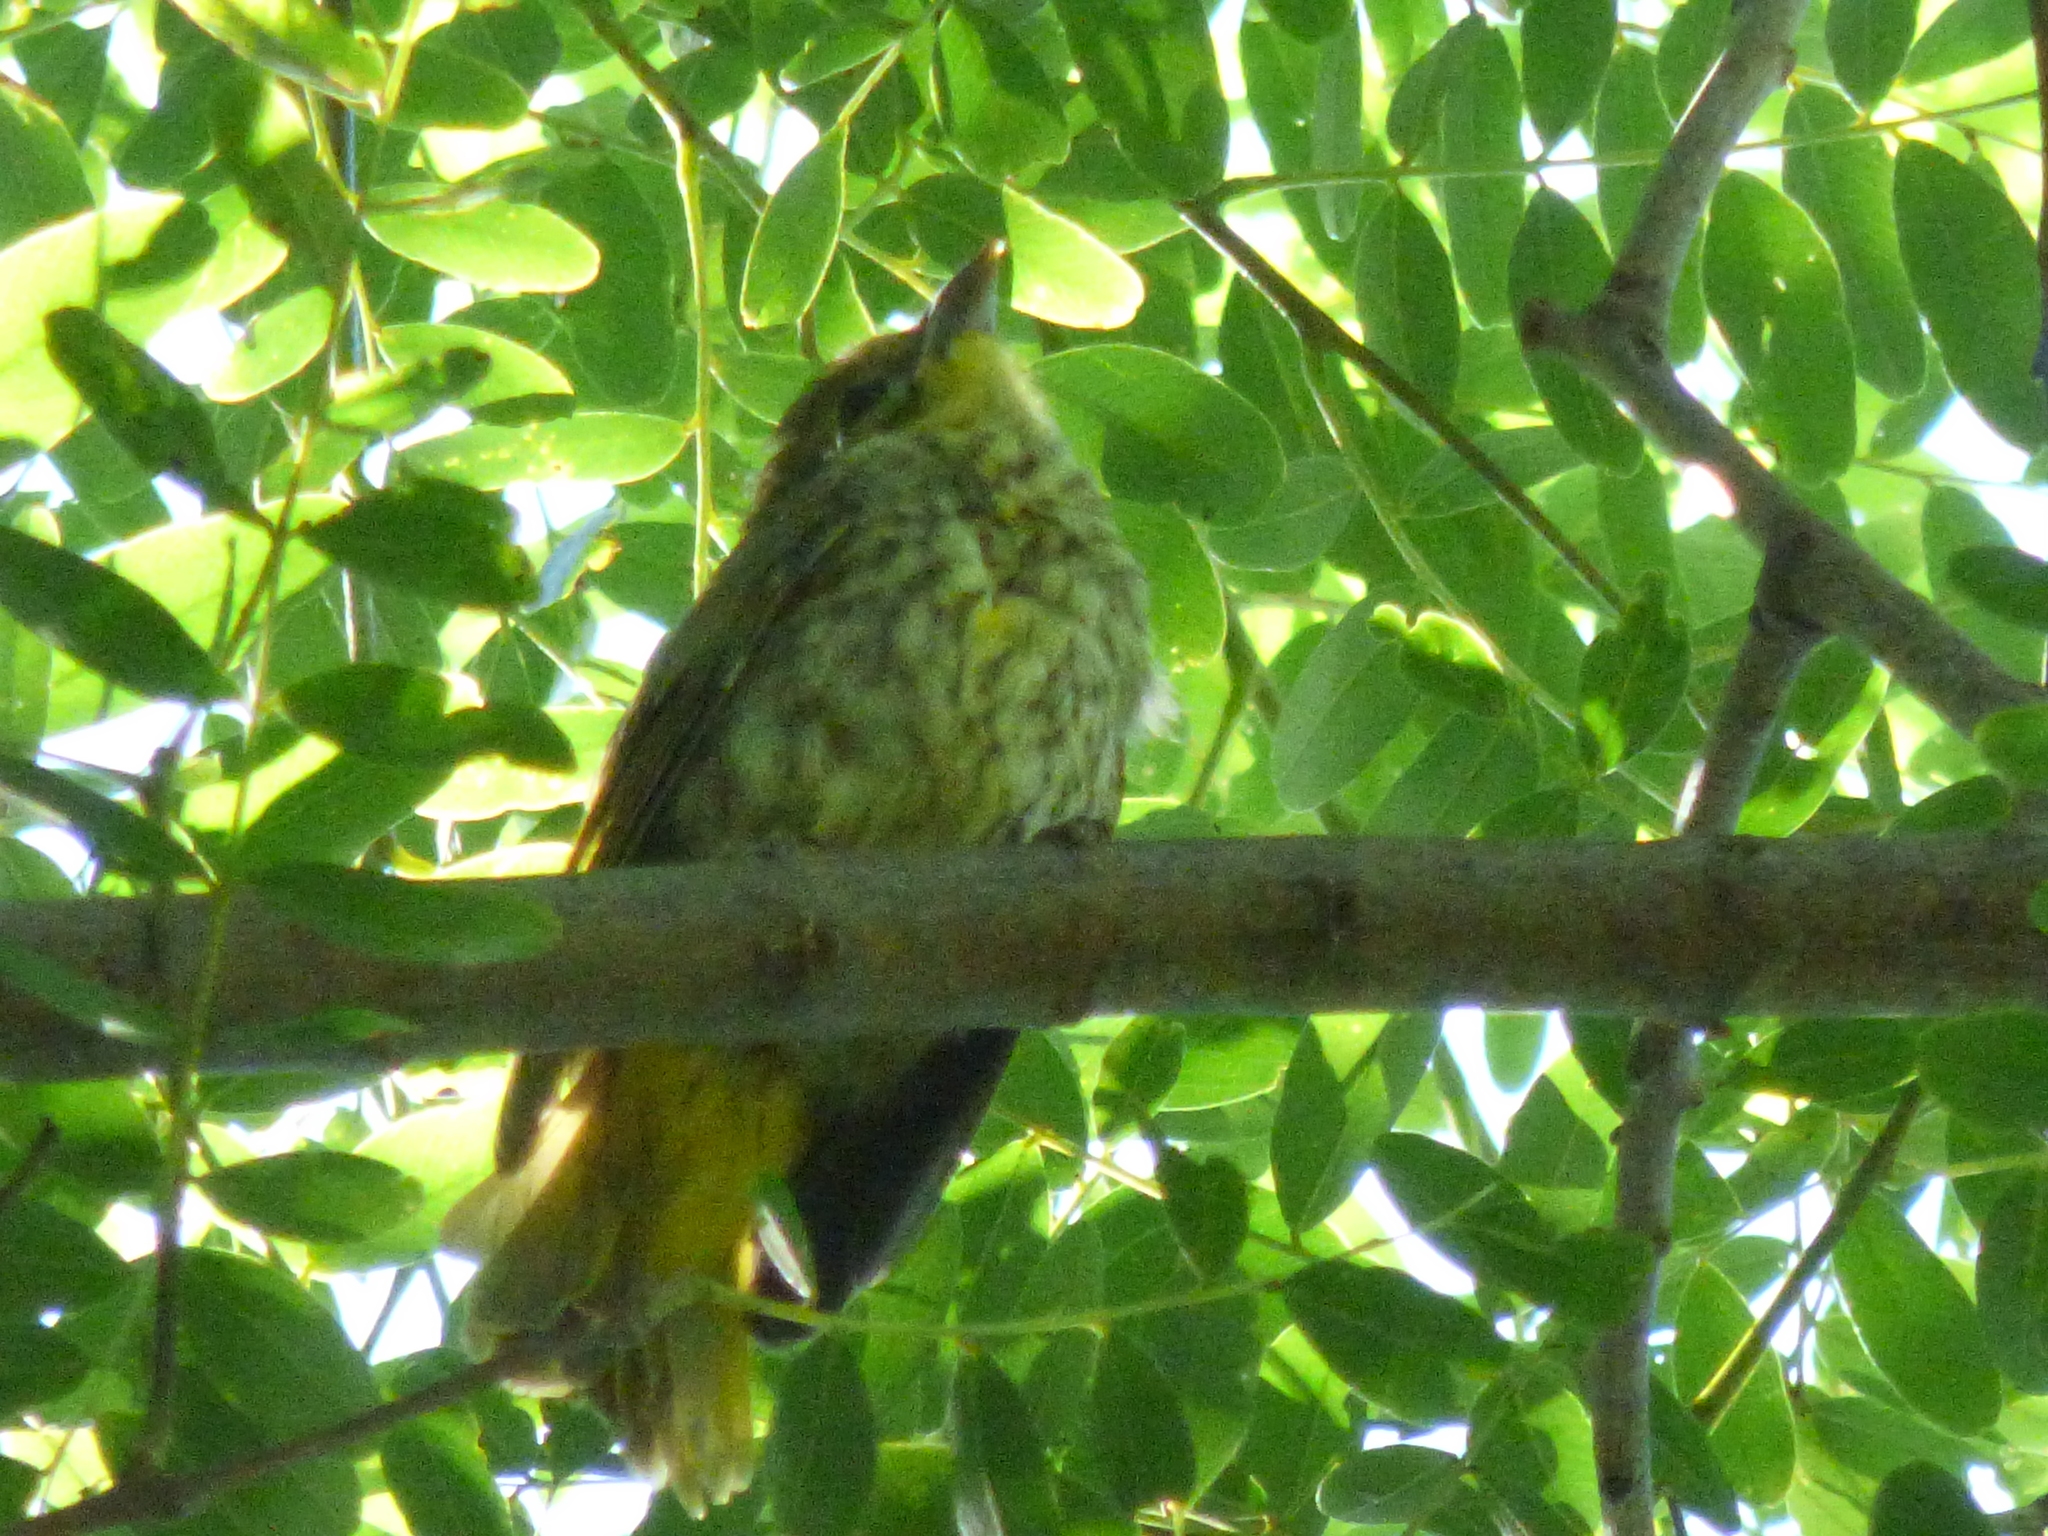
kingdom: Animalia
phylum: Chordata
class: Aves
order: Passeriformes
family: Cardinalidae
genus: Piranga
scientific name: Piranga flava
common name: Red tanager
